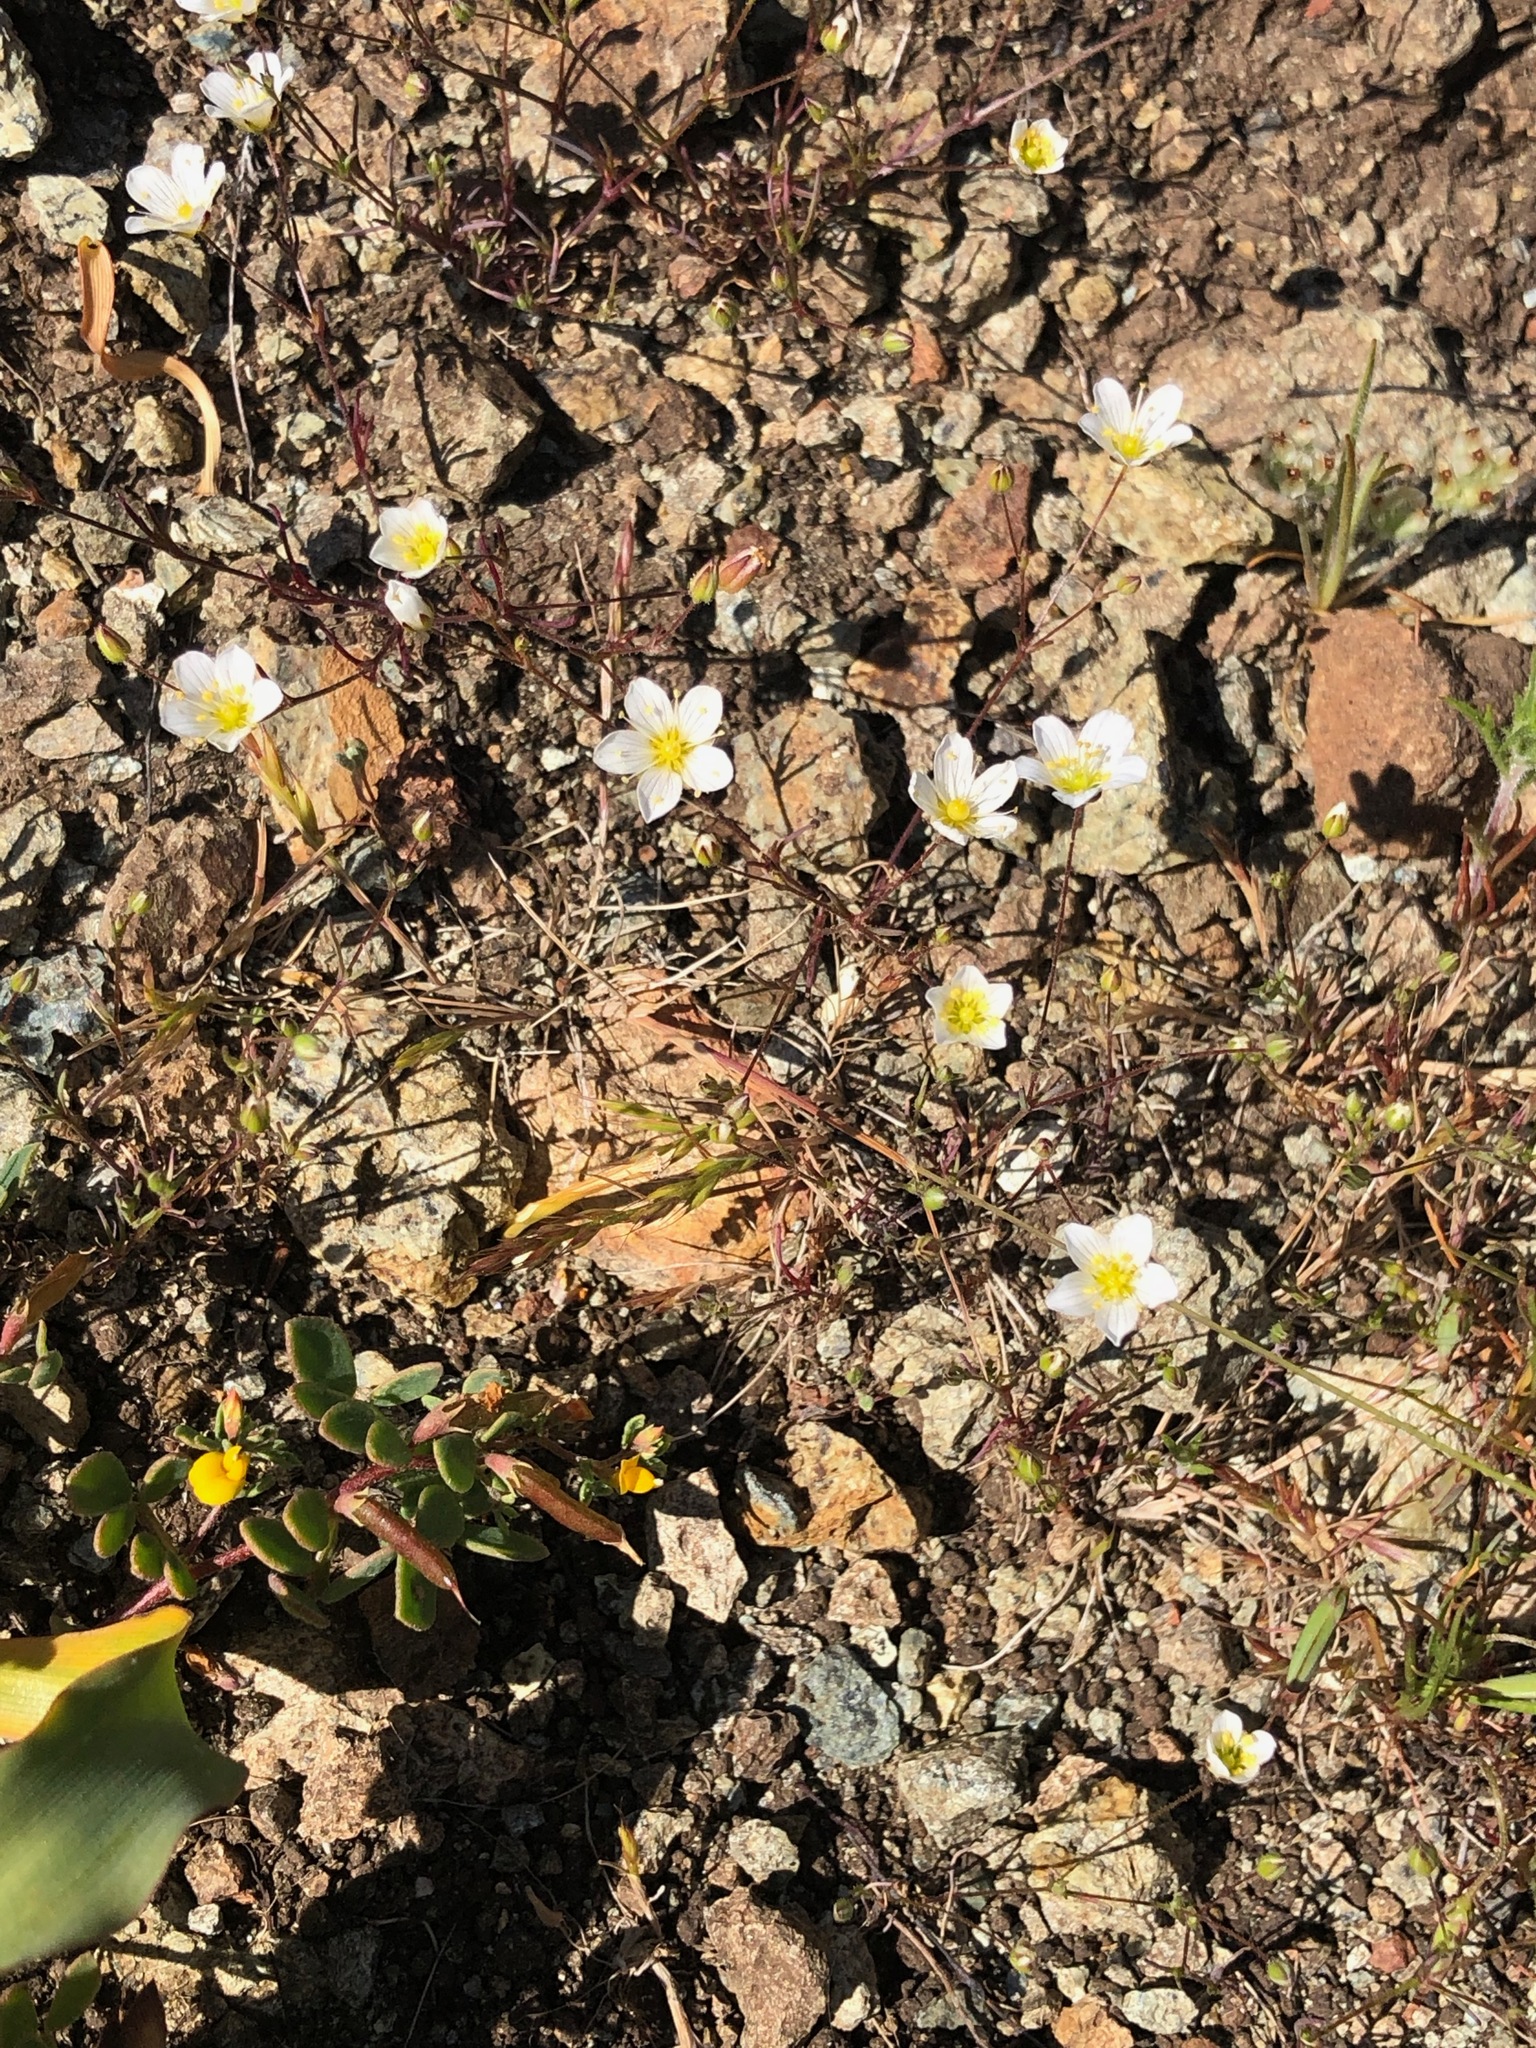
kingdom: Plantae
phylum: Tracheophyta
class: Magnoliopsida
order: Caryophyllales
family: Caryophyllaceae
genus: Sabulina
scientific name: Sabulina douglasii
